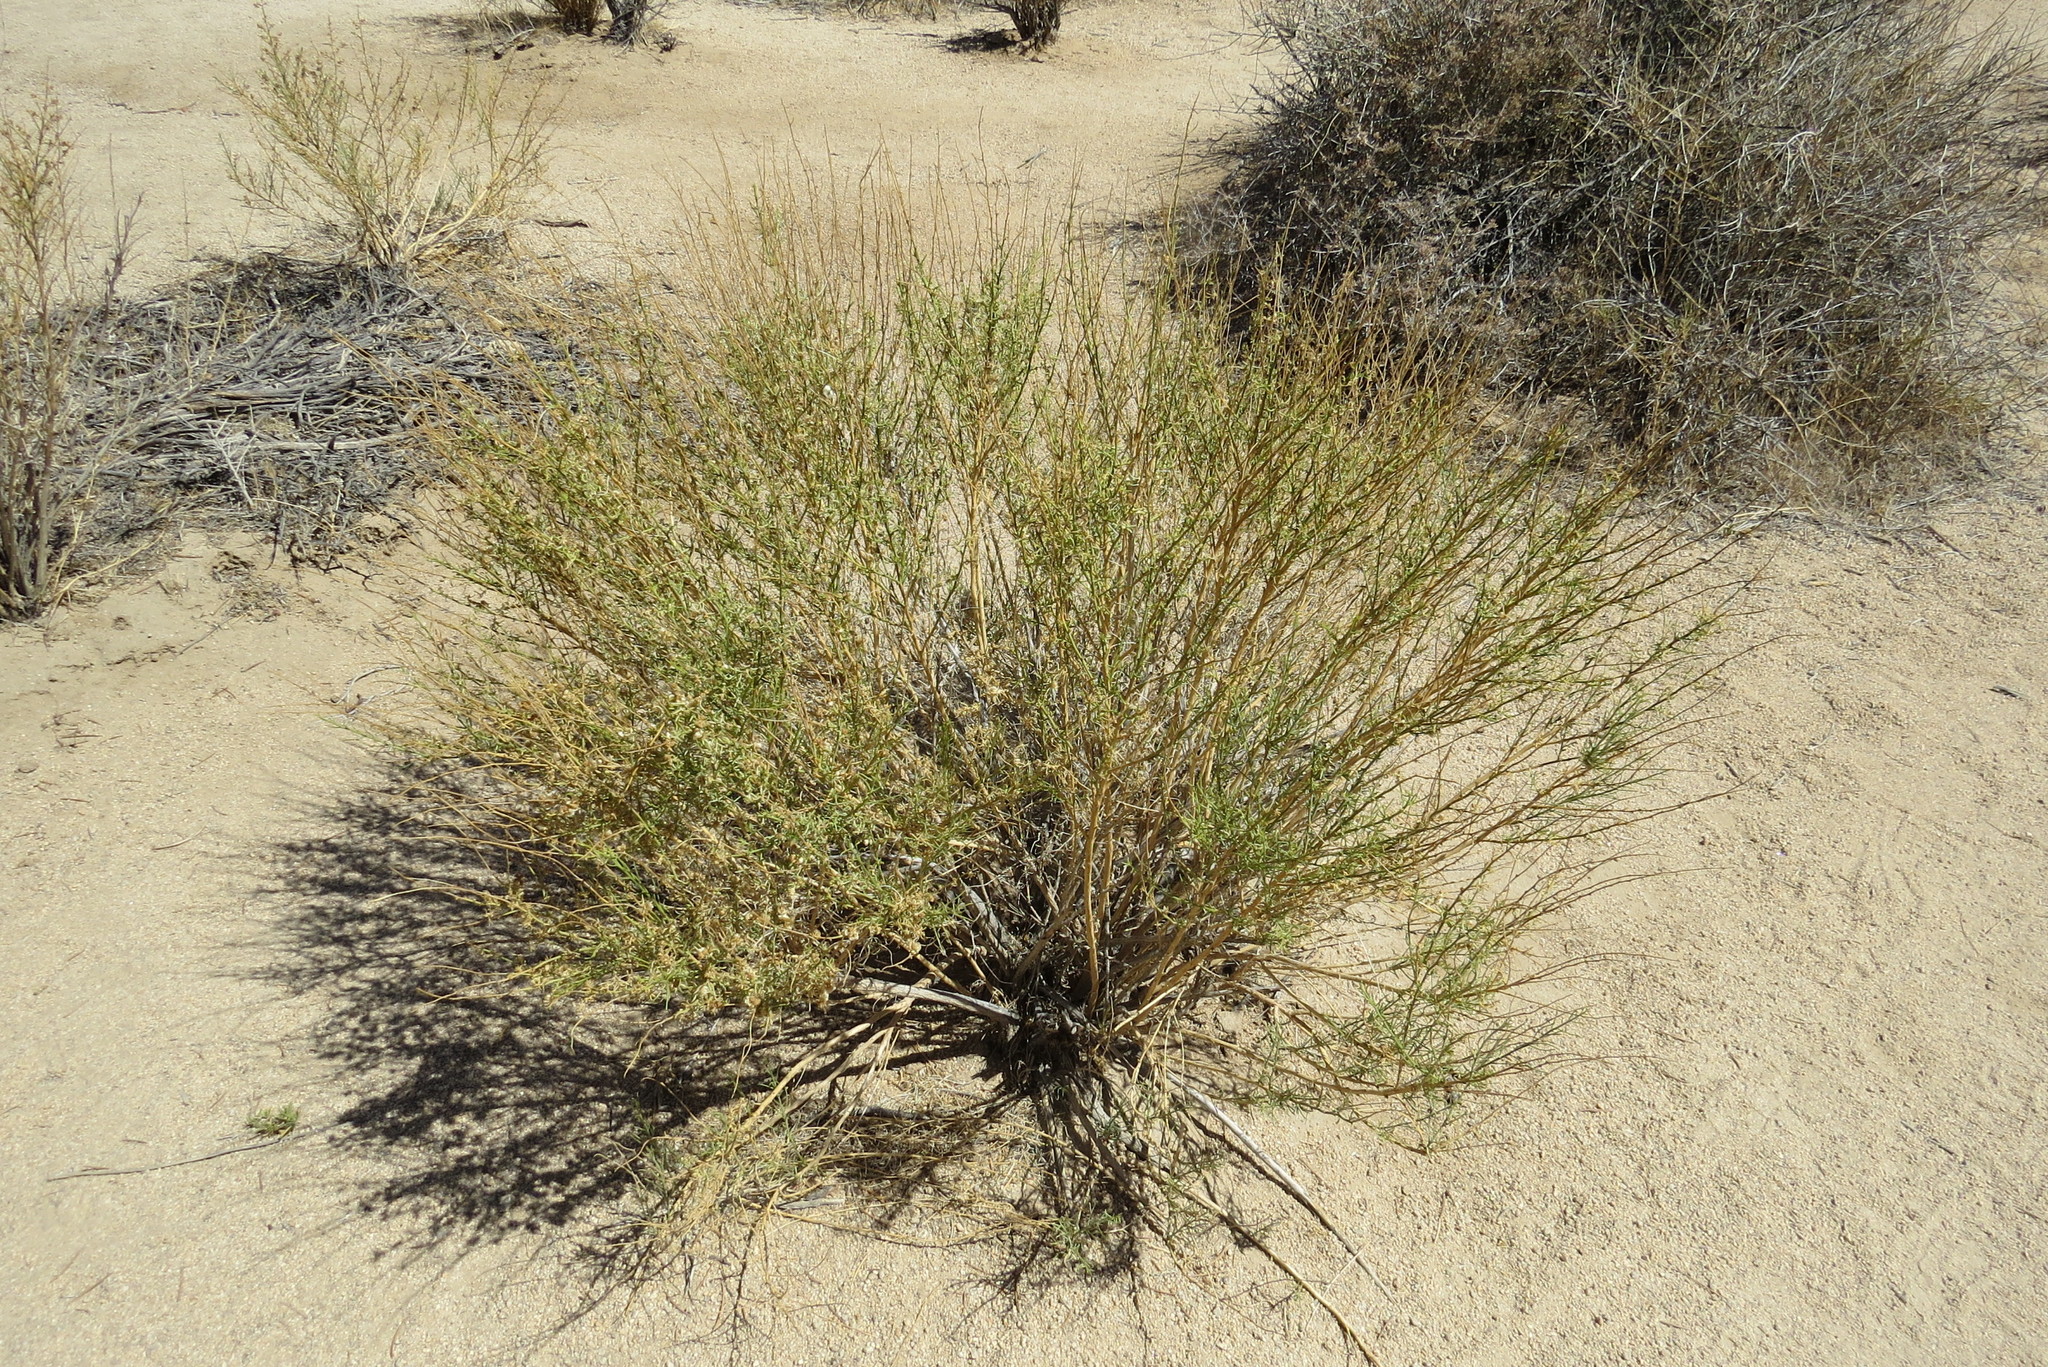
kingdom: Plantae
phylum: Tracheophyta
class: Magnoliopsida
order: Asterales
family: Asteraceae
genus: Ambrosia
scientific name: Ambrosia salsola
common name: Burrobrush
